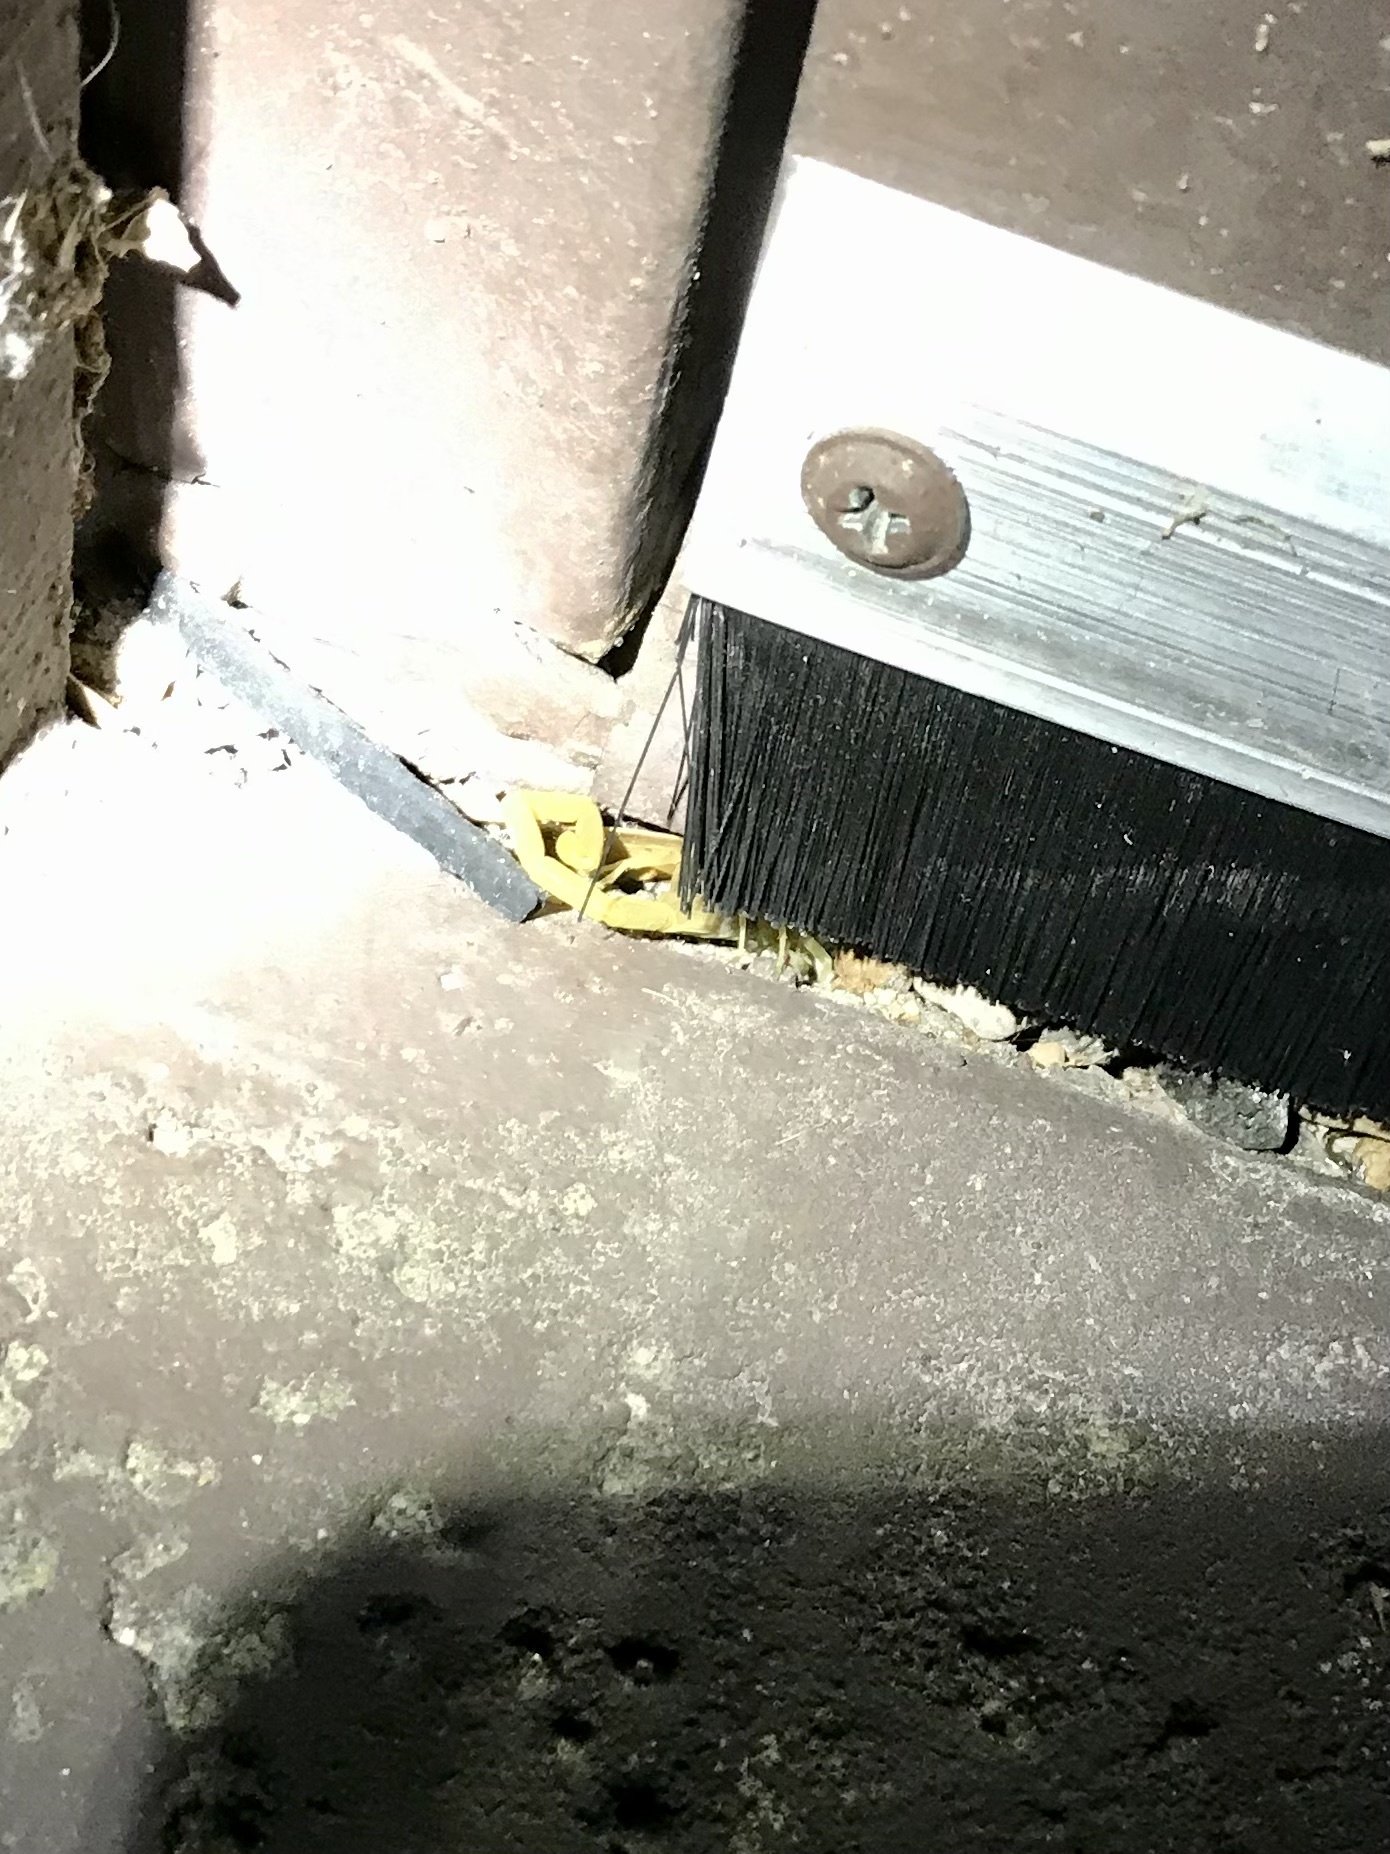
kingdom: Animalia
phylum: Arthropoda
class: Arachnida
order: Scorpiones
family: Buthidae
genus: Centruroides
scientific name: Centruroides sculpturatus
